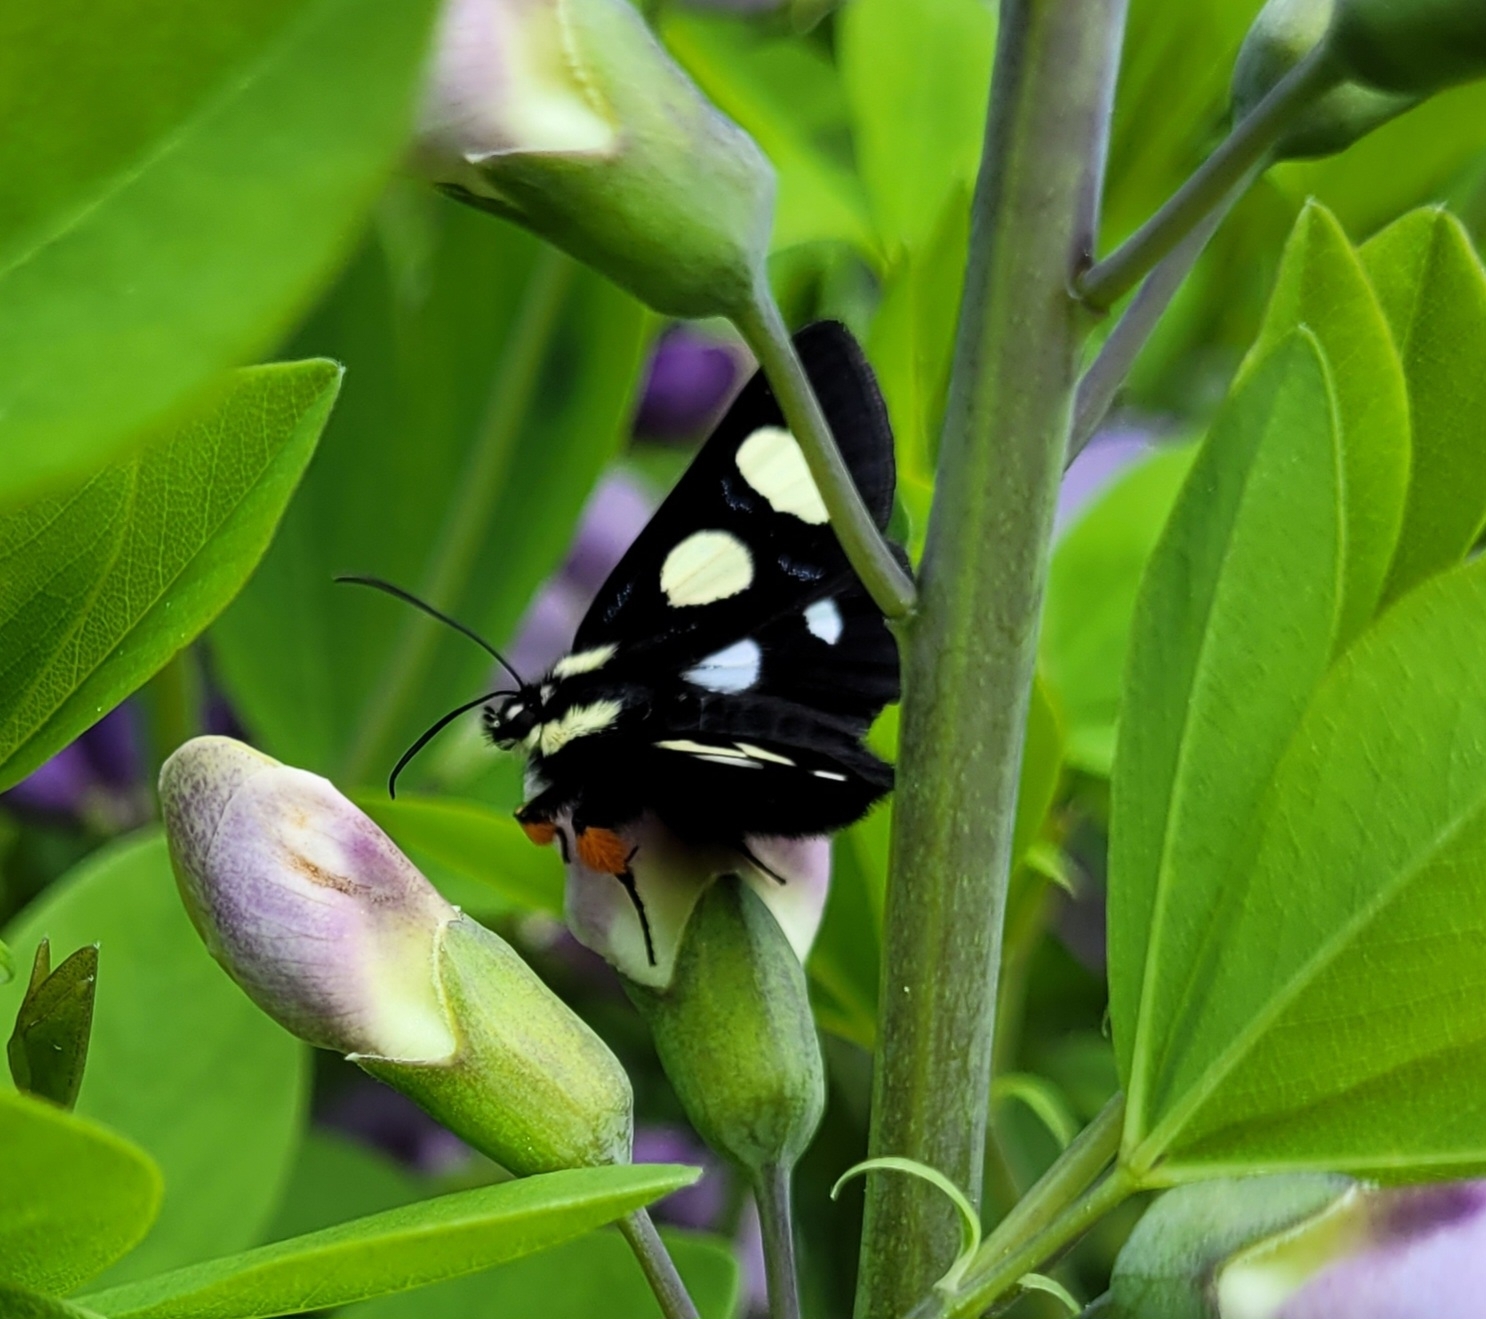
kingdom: Animalia
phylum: Arthropoda
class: Insecta
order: Lepidoptera
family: Noctuidae
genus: Alypia
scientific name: Alypia octomaculata
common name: Eight-spotted forester
